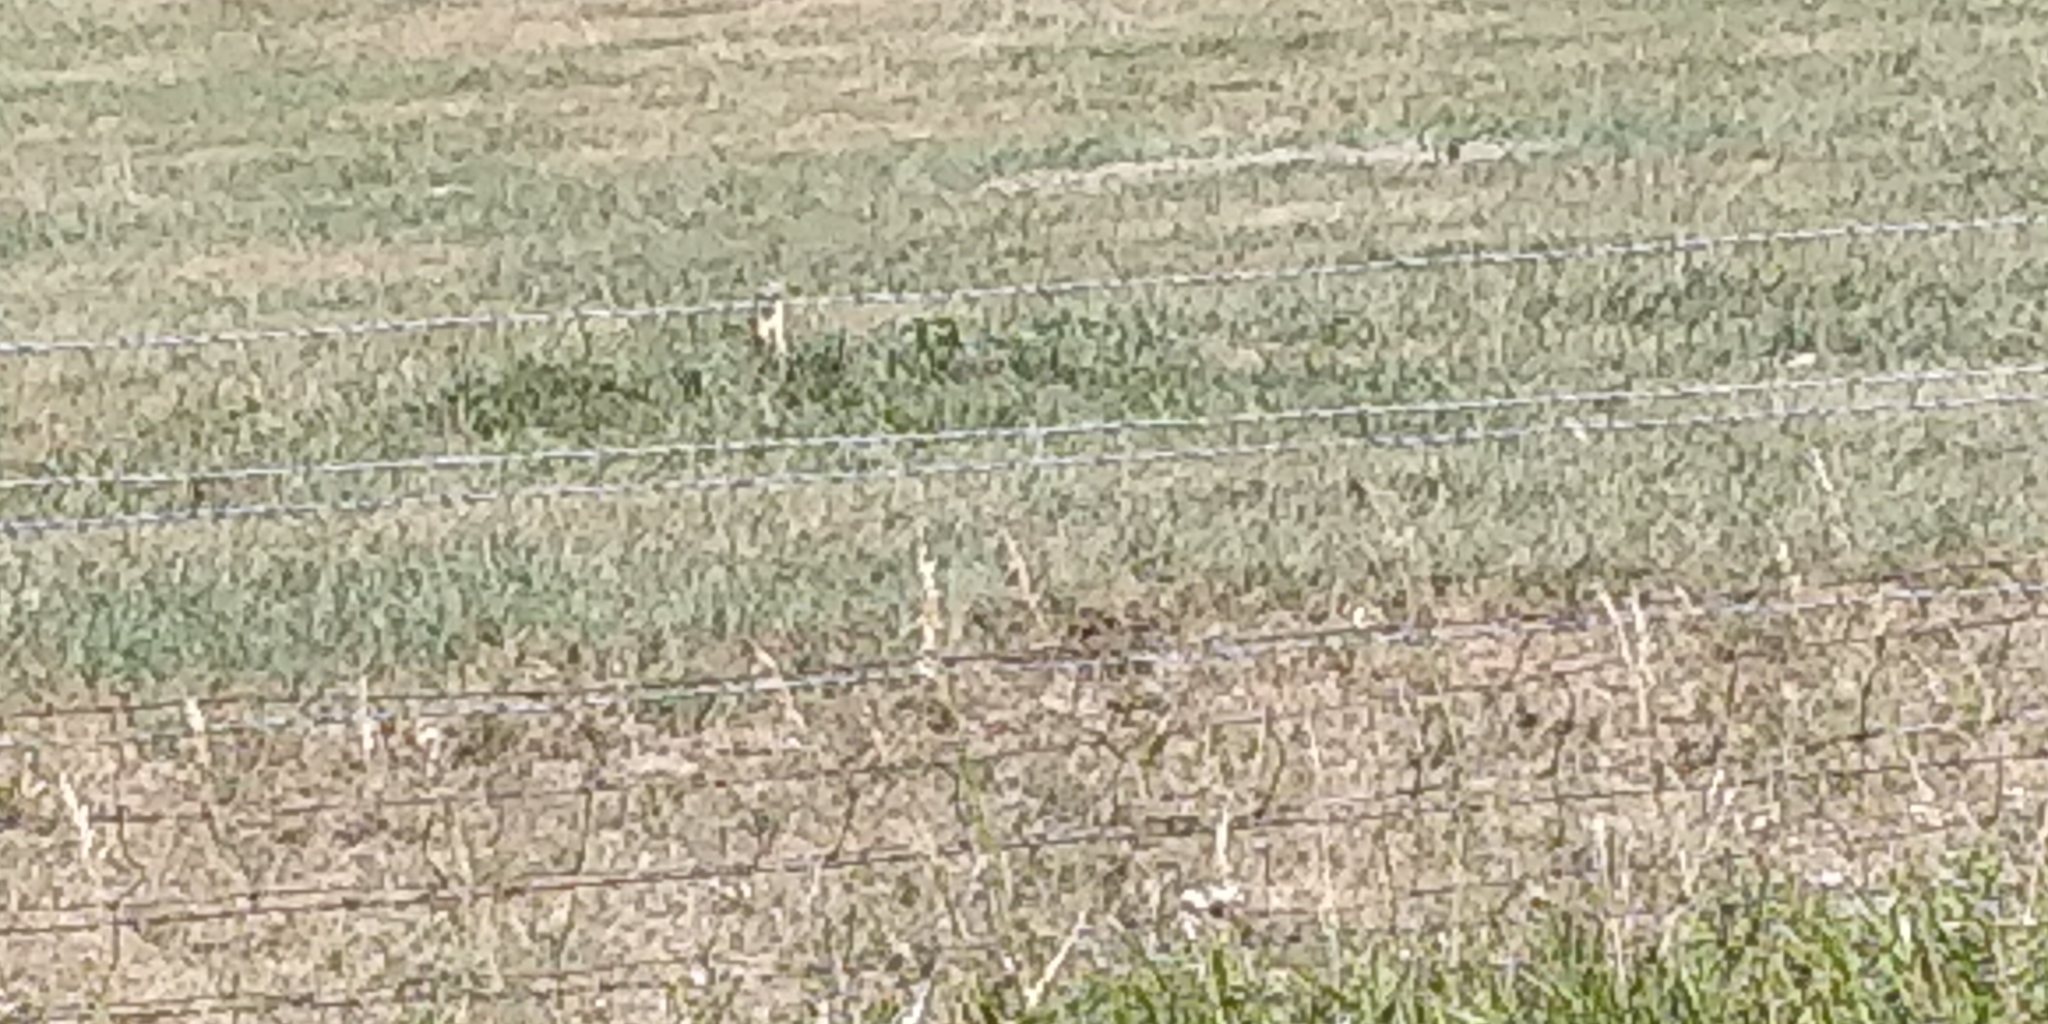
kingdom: Animalia
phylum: Chordata
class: Mammalia
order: Rodentia
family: Sciuridae
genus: Urocitellus
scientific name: Urocitellus richardsonii
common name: Richardson's ground squirrel
